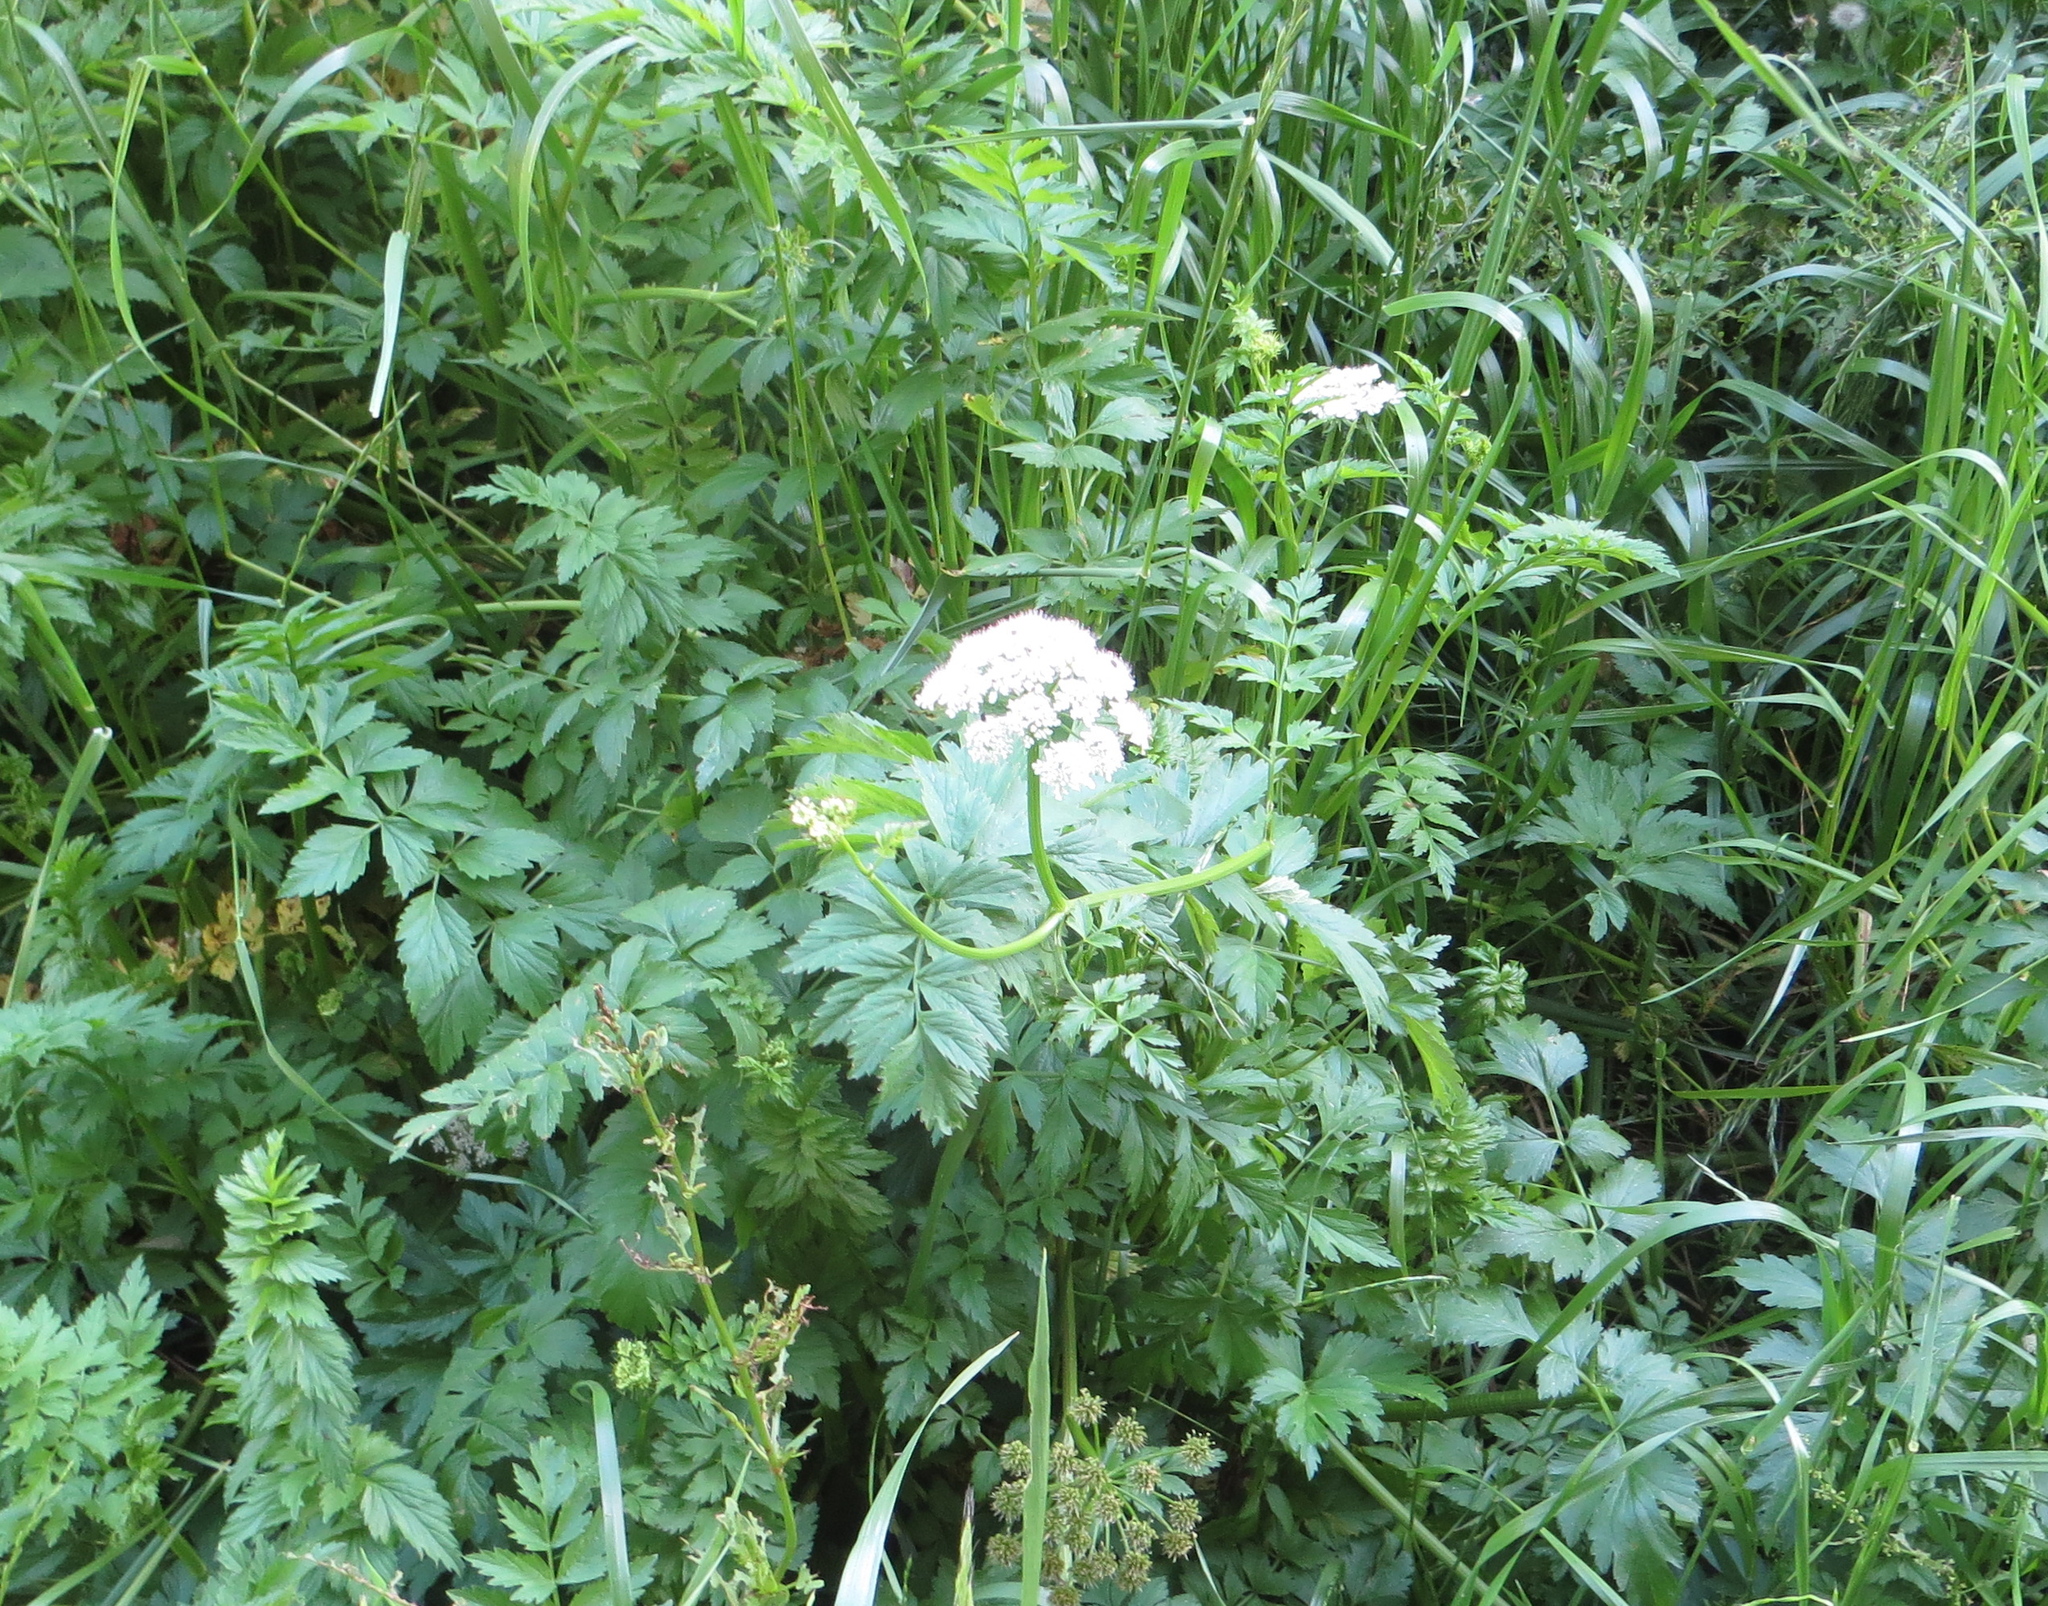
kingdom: Plantae
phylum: Tracheophyta
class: Magnoliopsida
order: Apiales
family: Apiaceae
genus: Oenanthe
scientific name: Oenanthe sarmentosa
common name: American water-parsley
